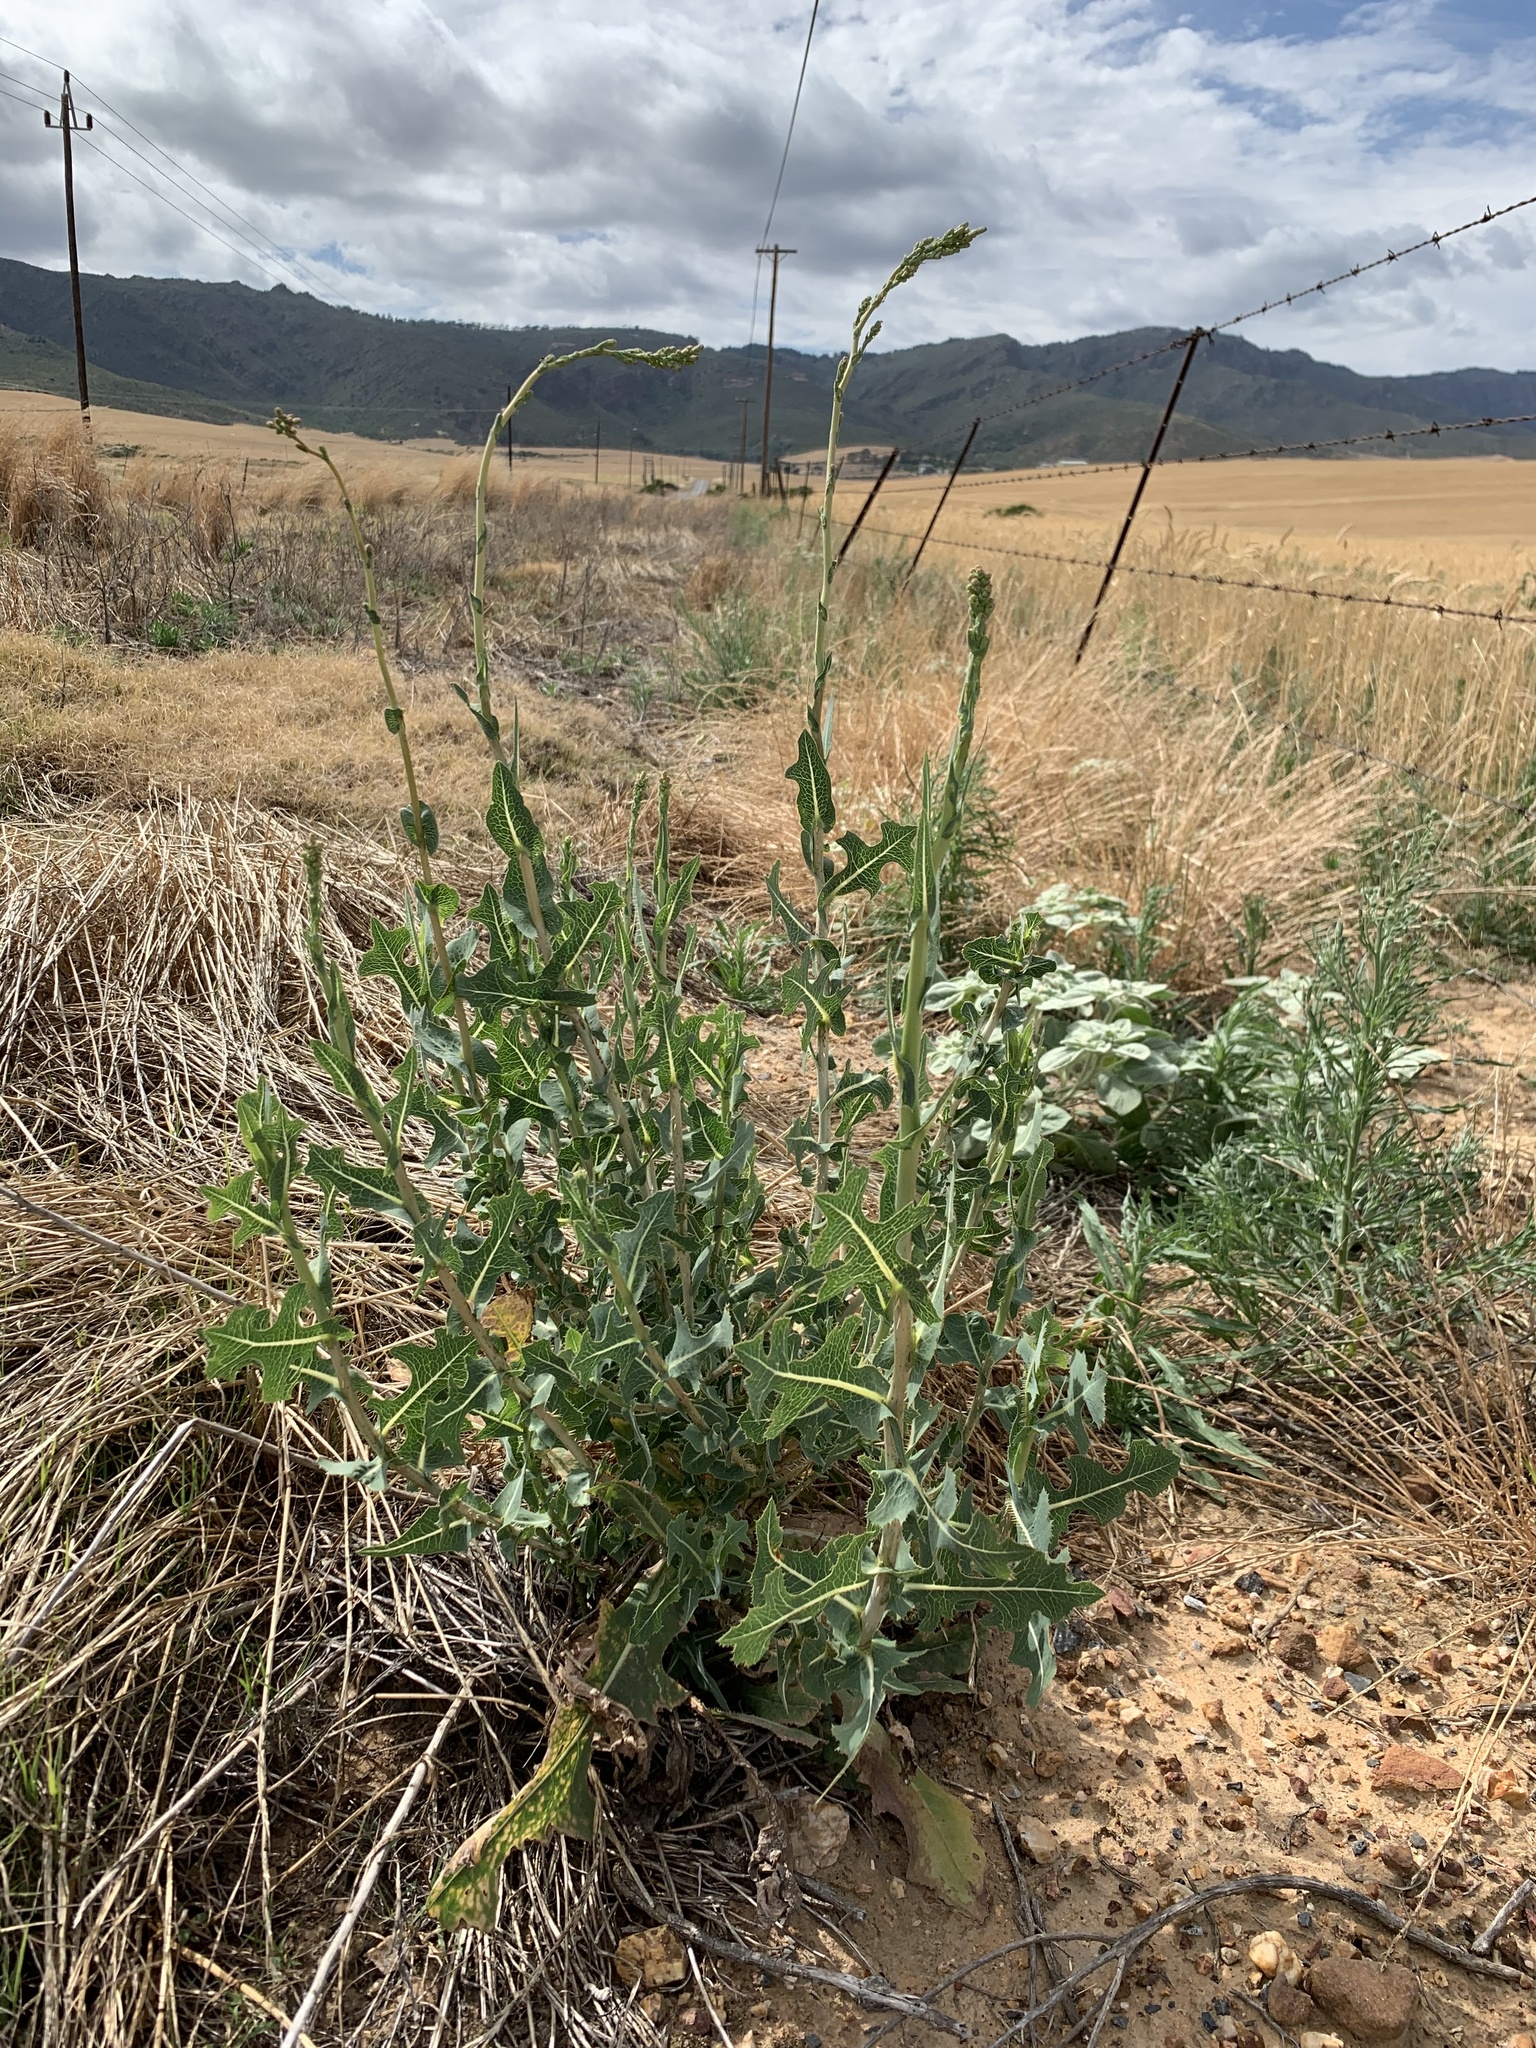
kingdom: Plantae
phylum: Tracheophyta
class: Magnoliopsida
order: Asterales
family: Asteraceae
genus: Lactuca
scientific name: Lactuca serriola
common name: Prickly lettuce
